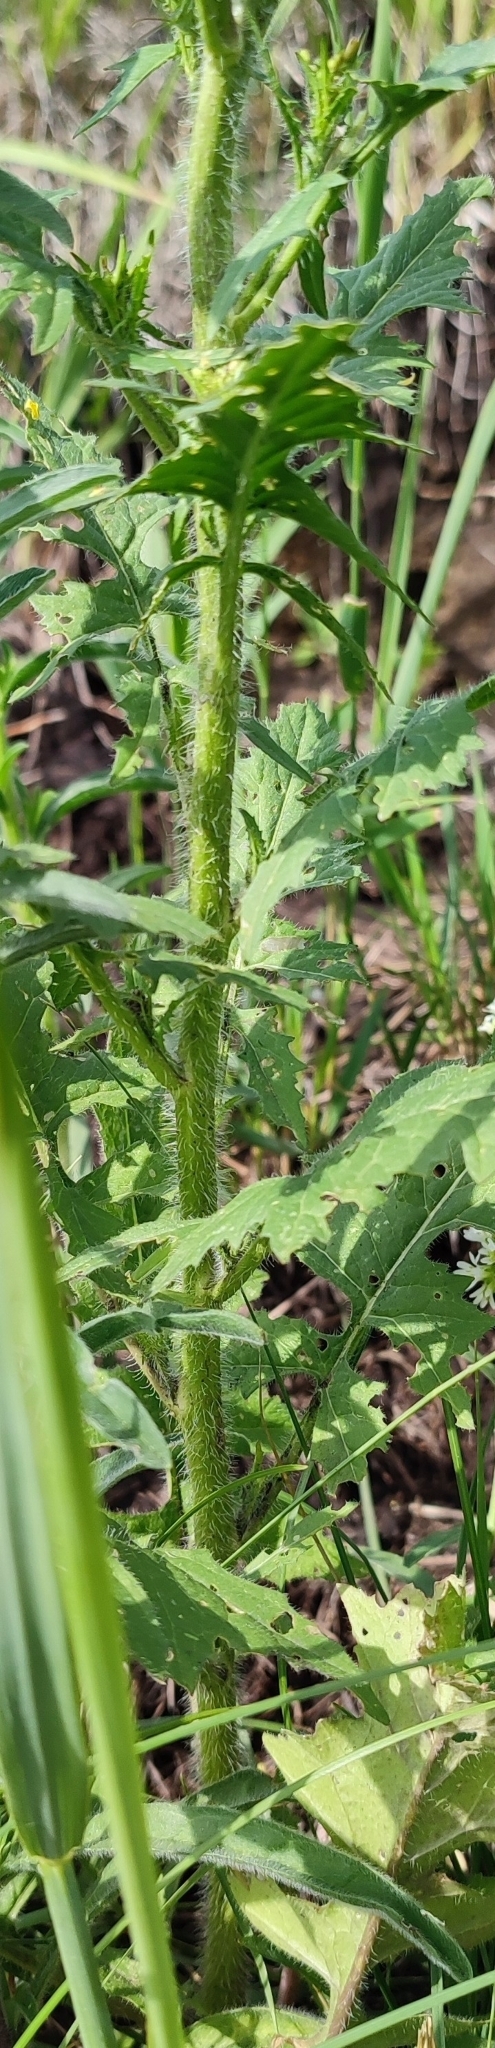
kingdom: Plantae
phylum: Tracheophyta
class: Magnoliopsida
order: Brassicales
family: Brassicaceae
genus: Sisymbrium
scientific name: Sisymbrium loeselii
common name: False london-rocket
